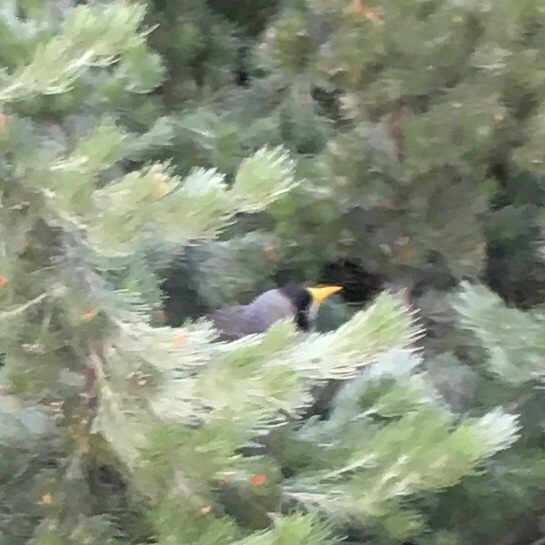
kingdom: Animalia
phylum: Chordata
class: Aves
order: Passeriformes
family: Meliphagidae
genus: Manorina
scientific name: Manorina melanocephala
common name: Noisy miner
